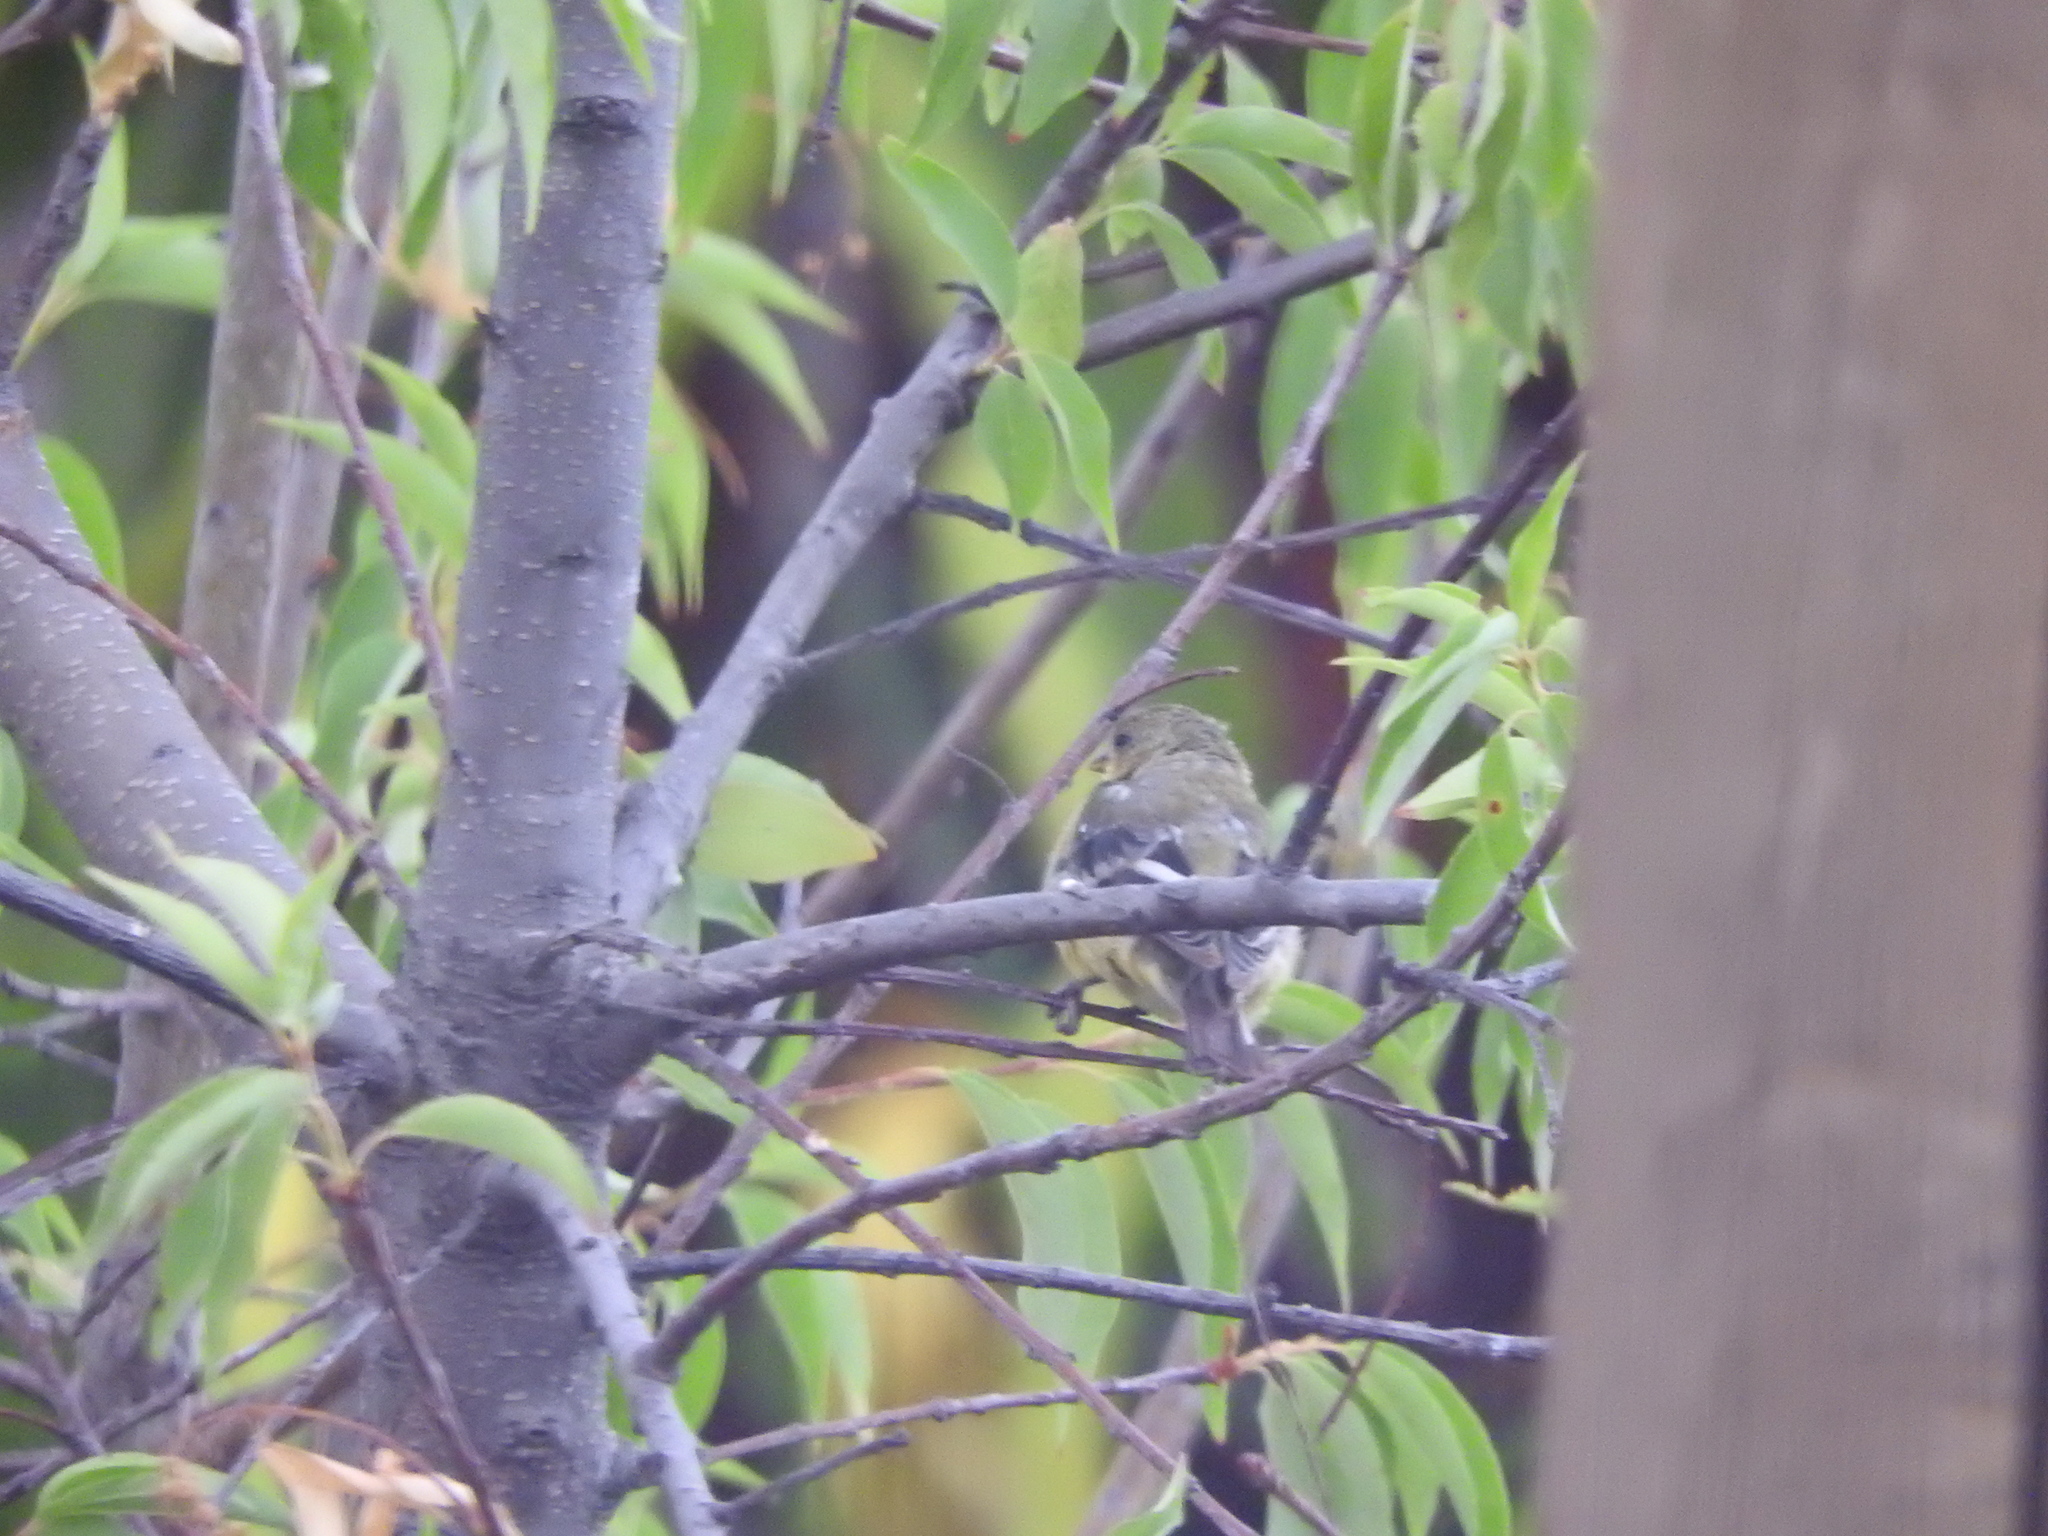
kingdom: Animalia
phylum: Chordata
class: Aves
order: Passeriformes
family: Fringillidae
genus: Spinus
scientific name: Spinus psaltria
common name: Lesser goldfinch
